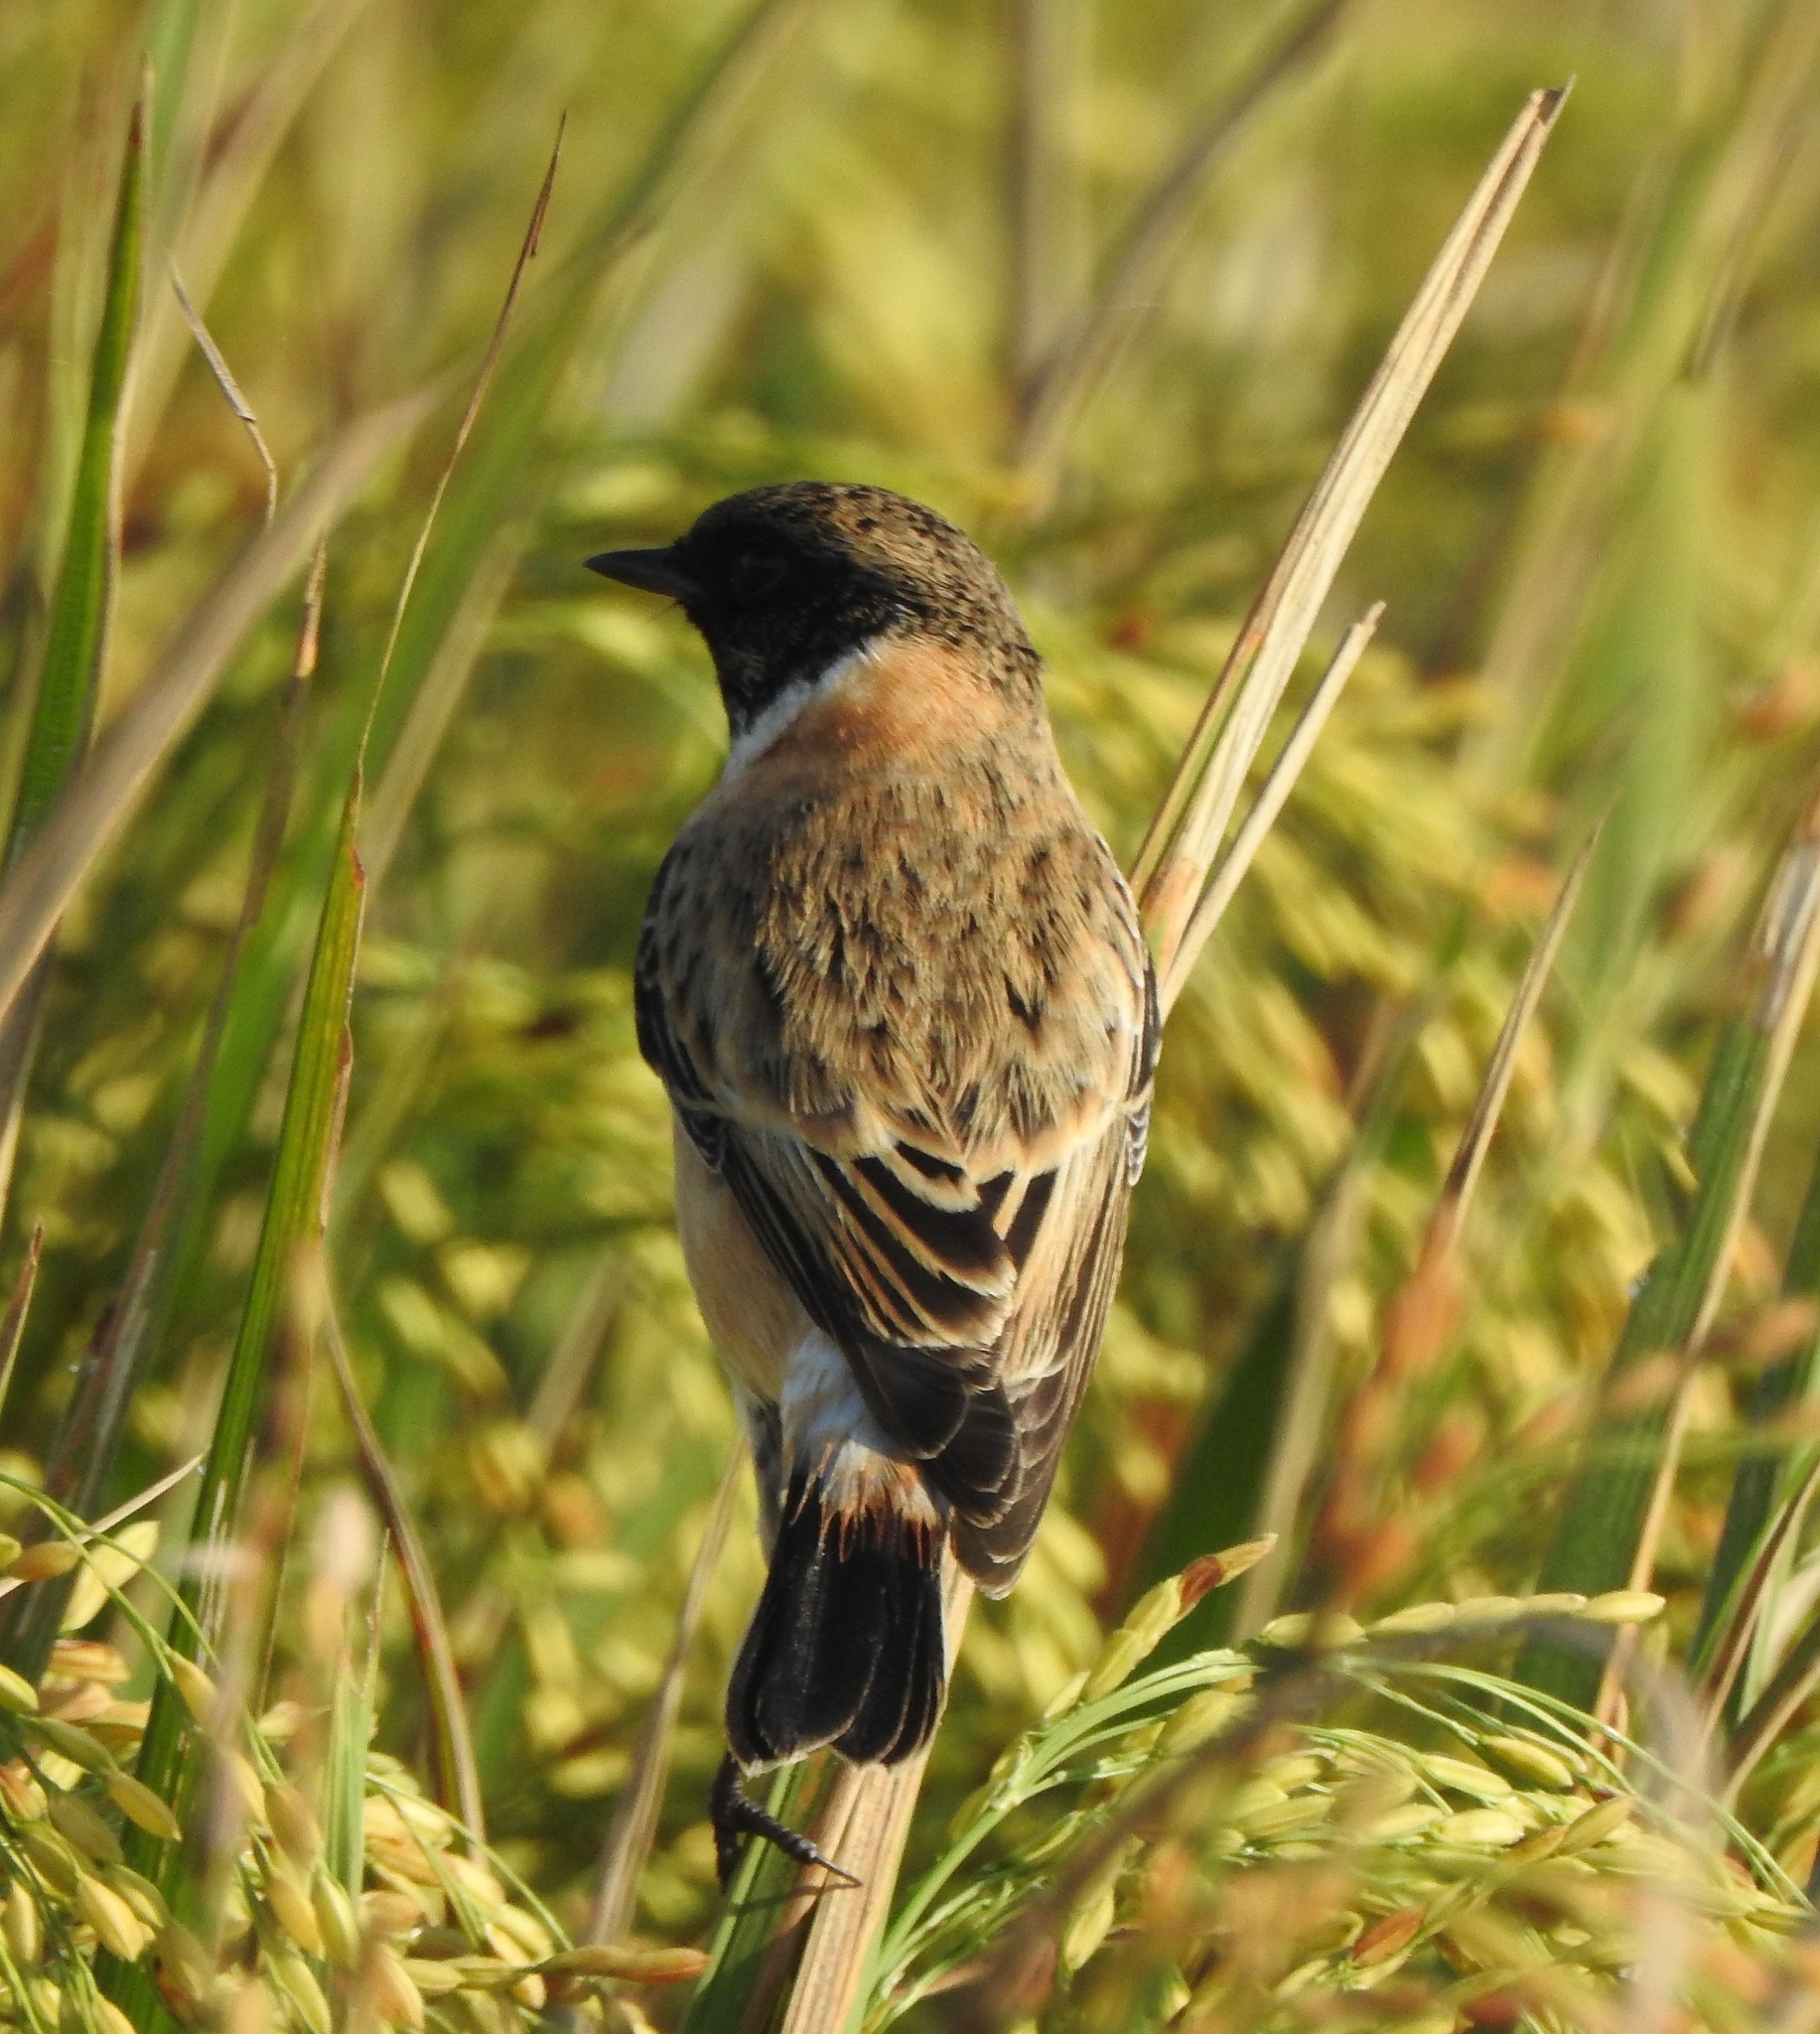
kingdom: Animalia
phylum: Chordata
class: Aves
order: Passeriformes
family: Muscicapidae
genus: Saxicola
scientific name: Saxicola maurus
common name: Siberian stonechat
